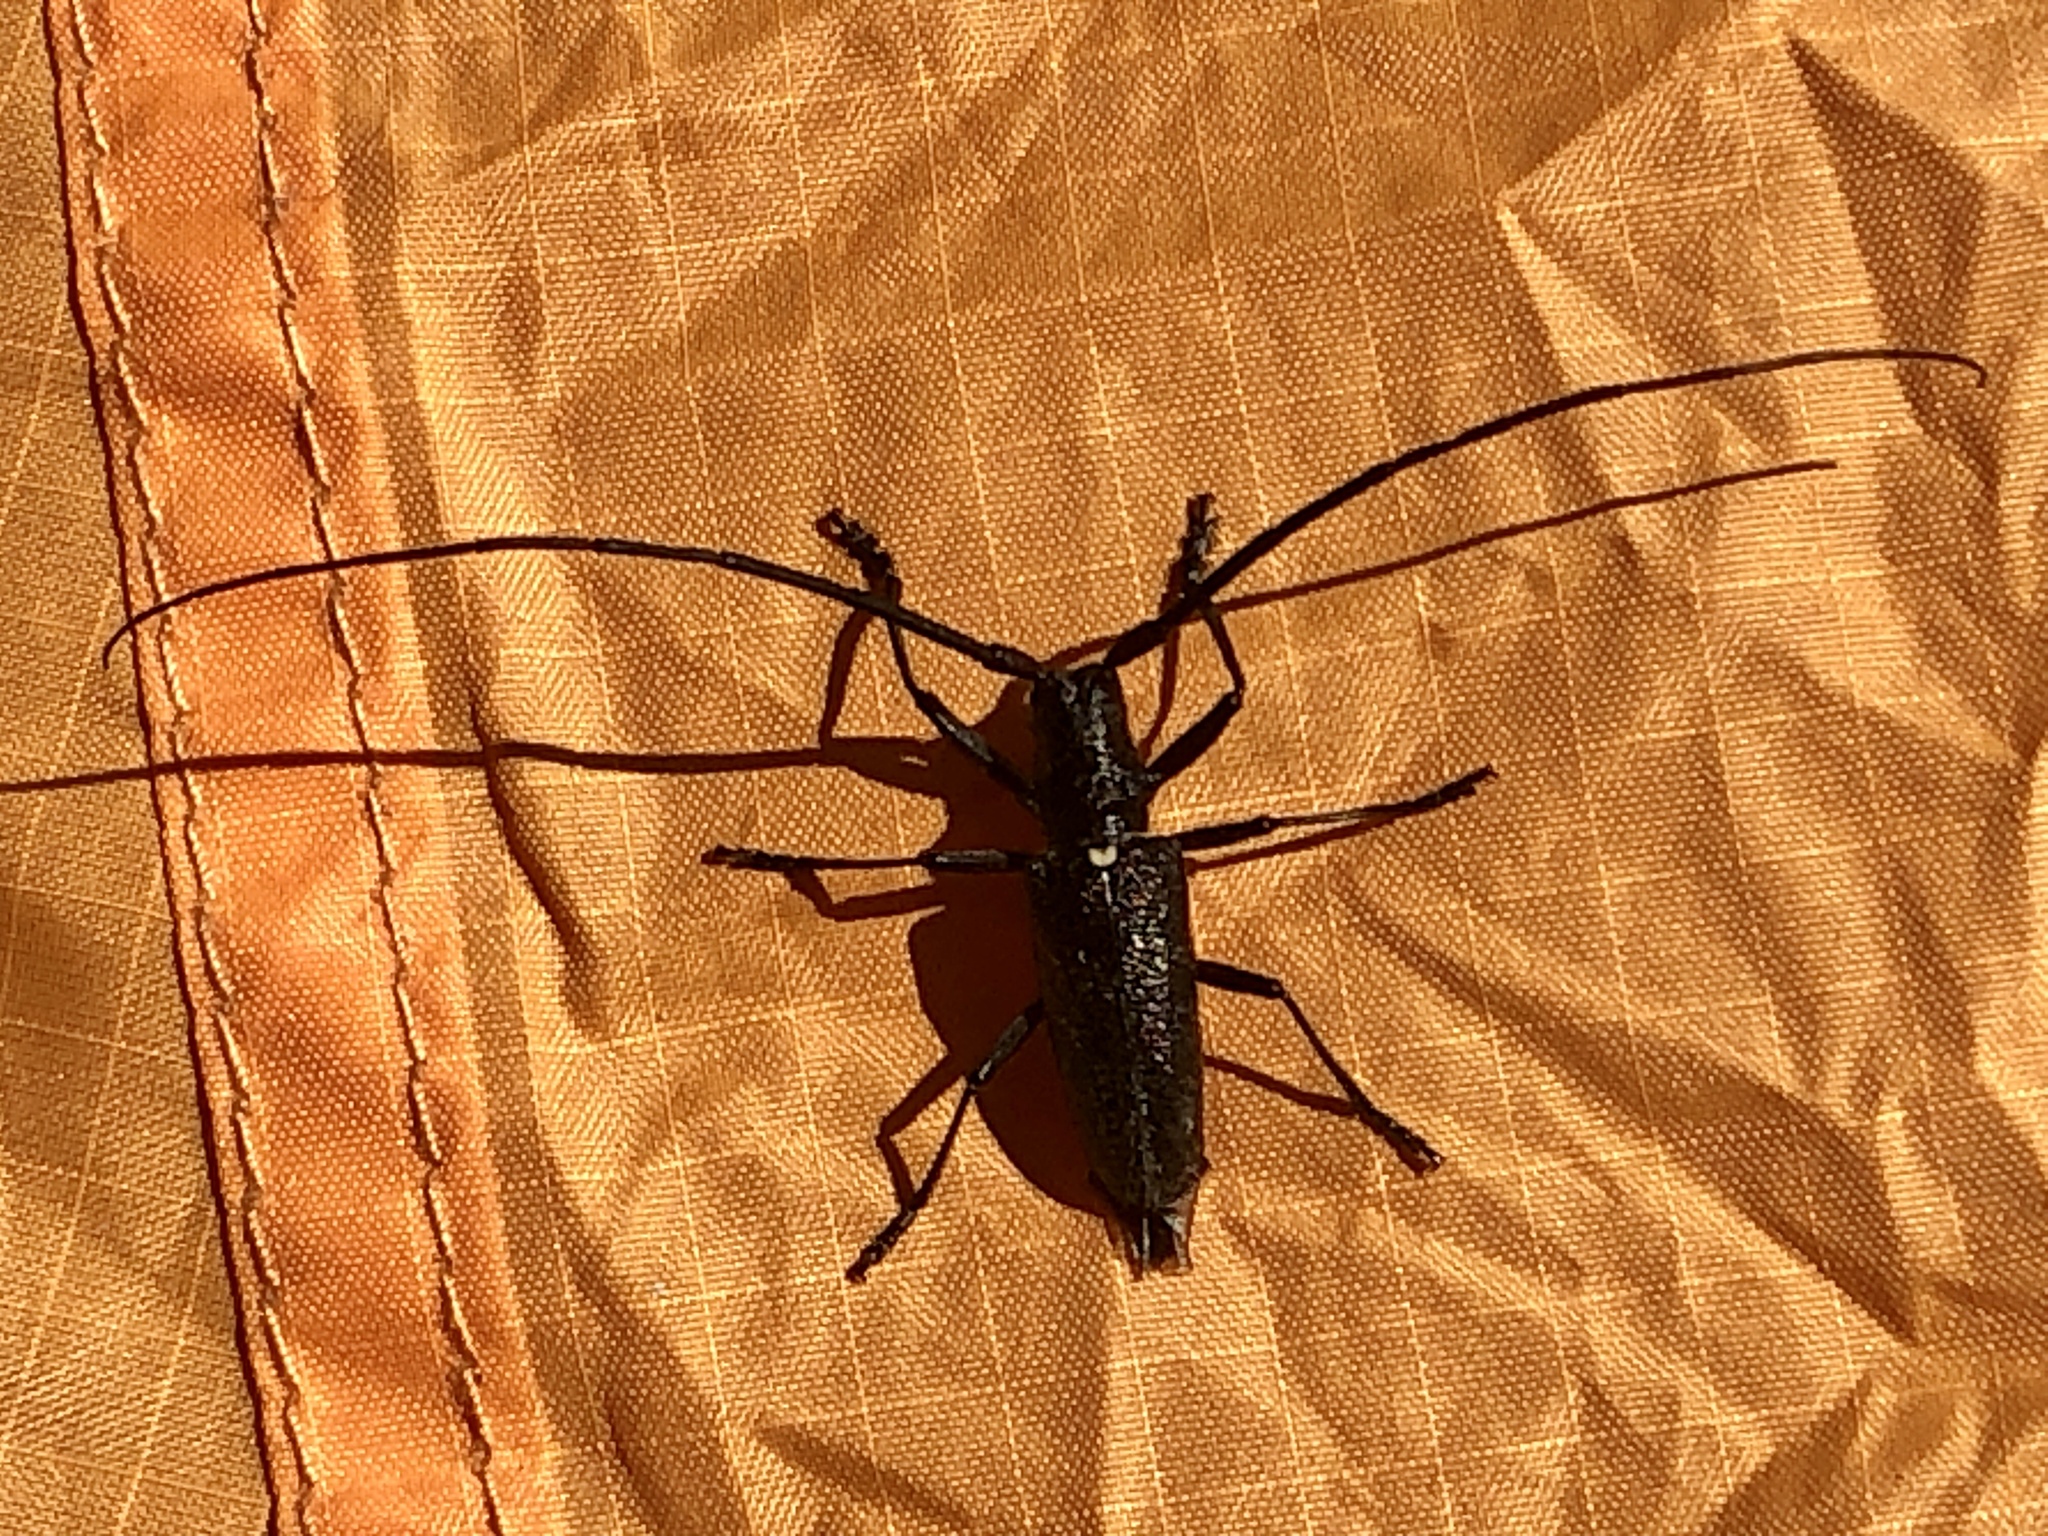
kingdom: Animalia
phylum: Arthropoda
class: Insecta
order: Coleoptera
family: Cerambycidae
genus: Monochamus
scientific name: Monochamus scutellatus
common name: White-spotted sawyer beetle
